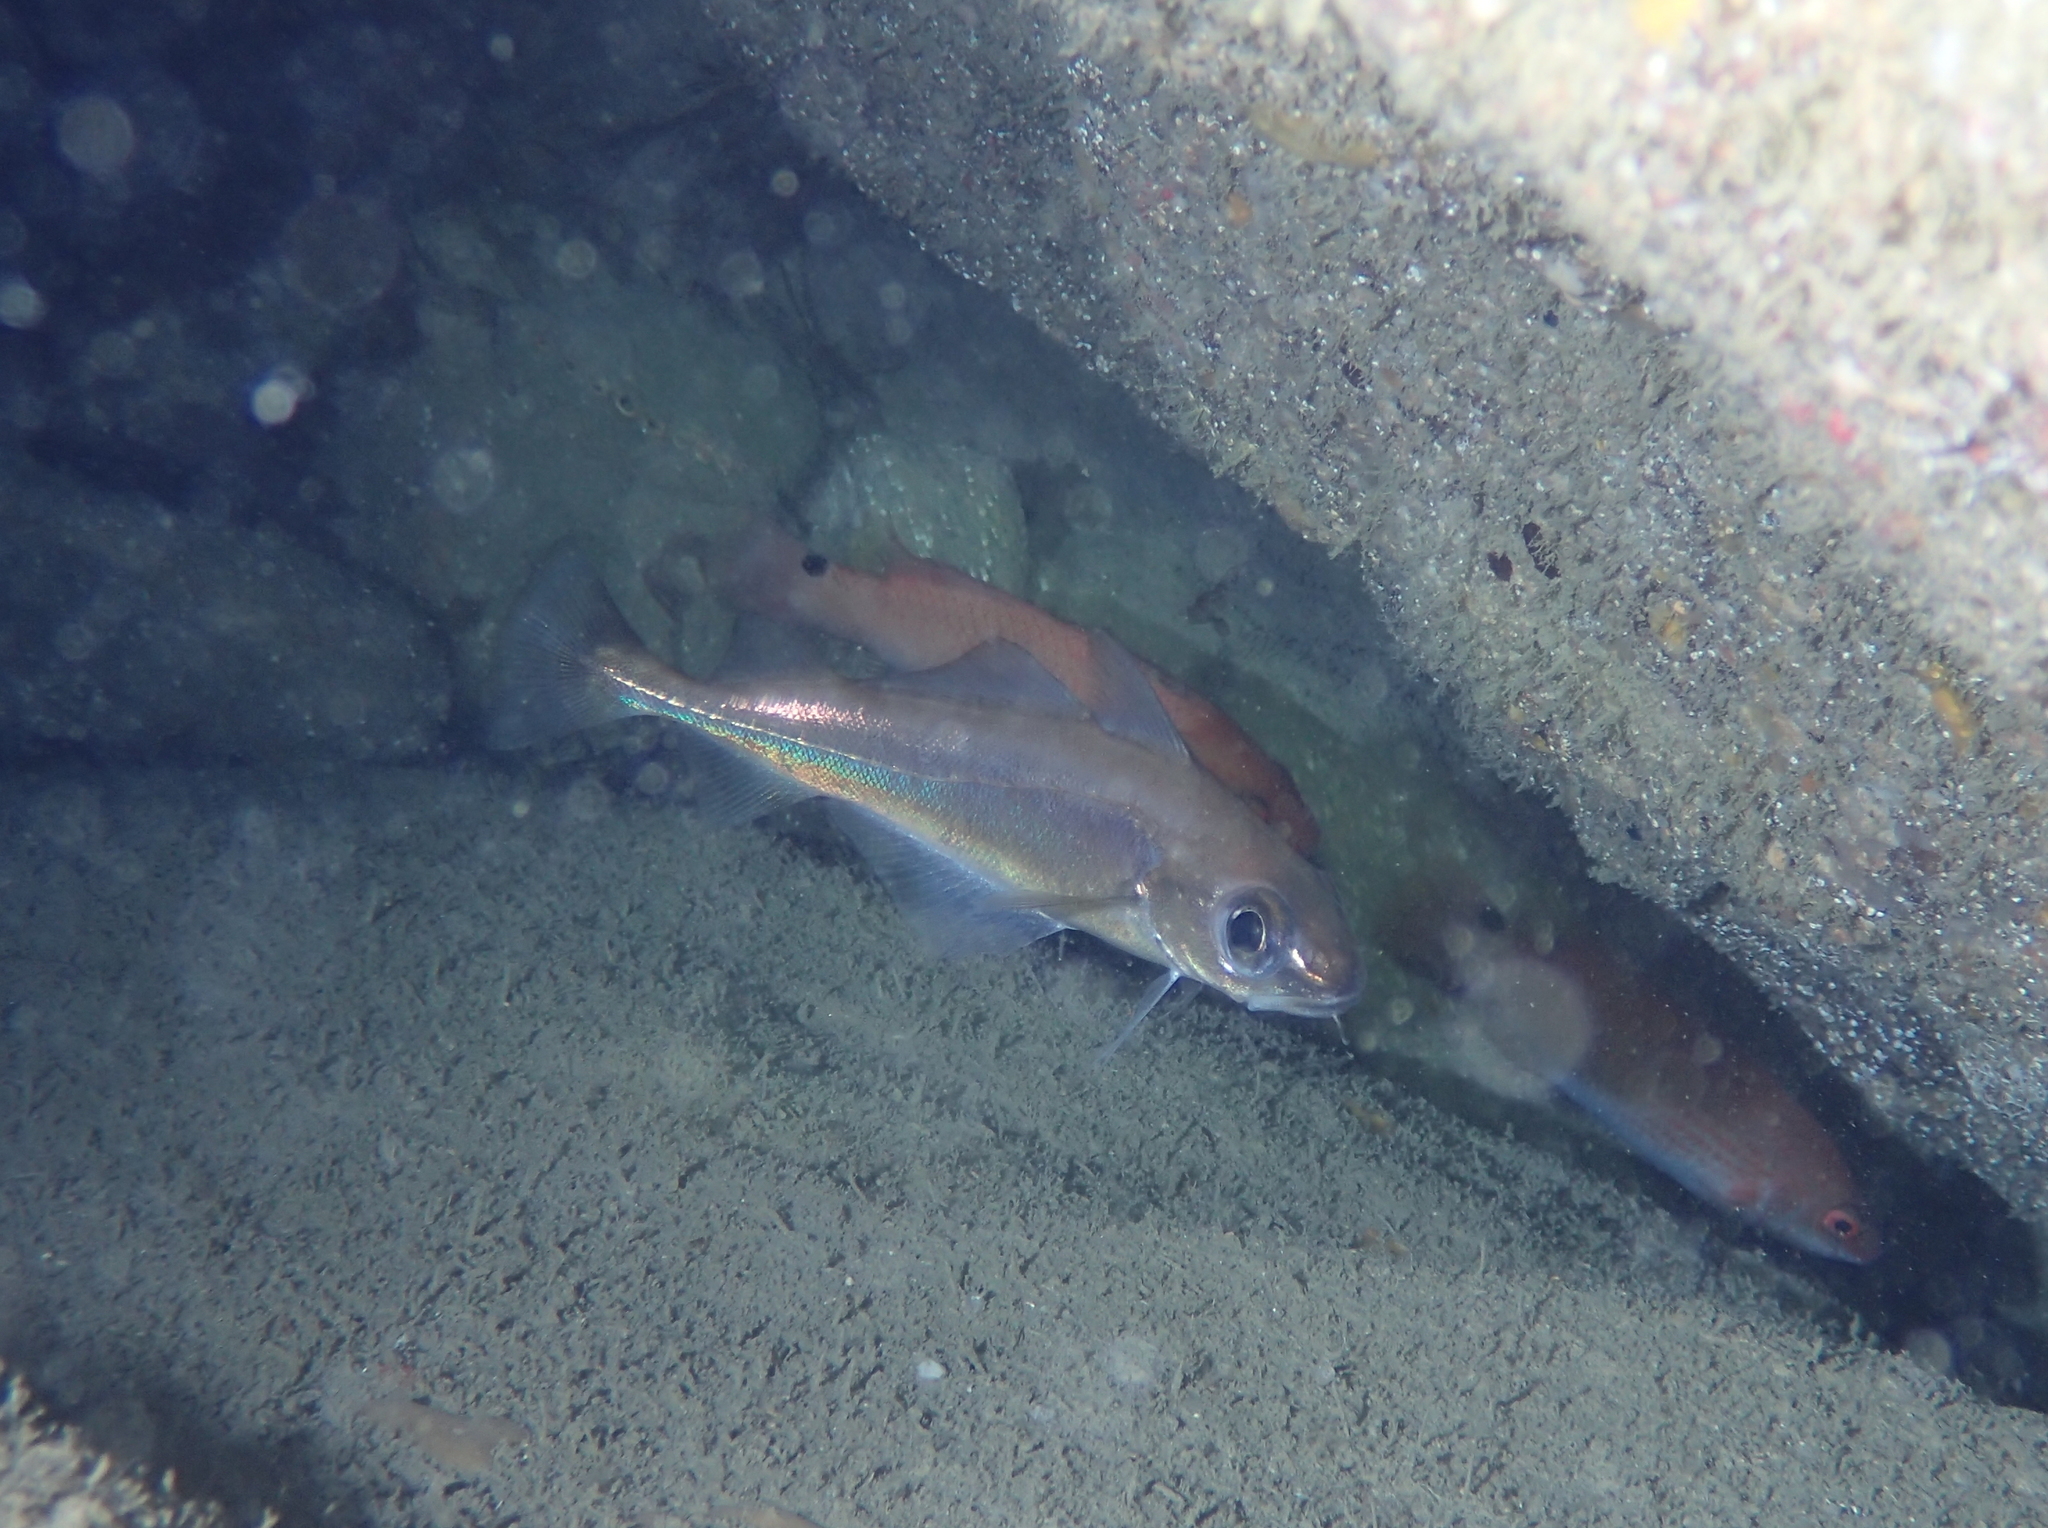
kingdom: Animalia
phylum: Chordata
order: Gadiformes
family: Gadidae
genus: Trisopterus
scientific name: Trisopterus minutus
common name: Poor cod
